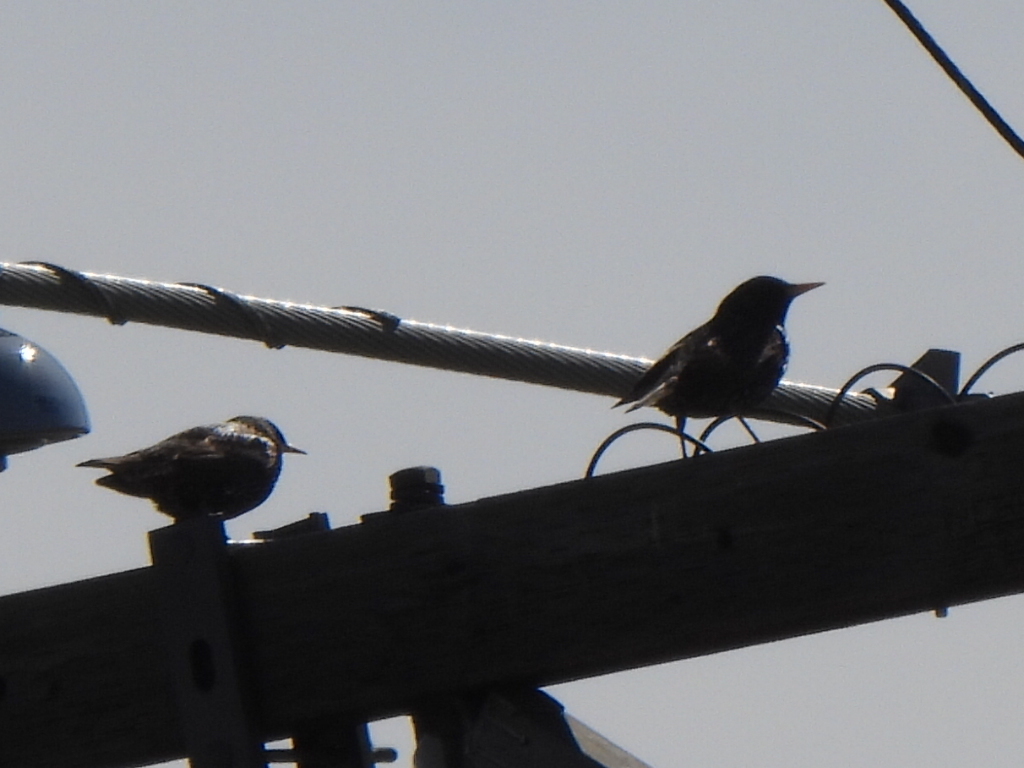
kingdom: Animalia
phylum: Chordata
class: Aves
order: Passeriformes
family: Sturnidae
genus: Sturnus
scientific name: Sturnus vulgaris
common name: Common starling
